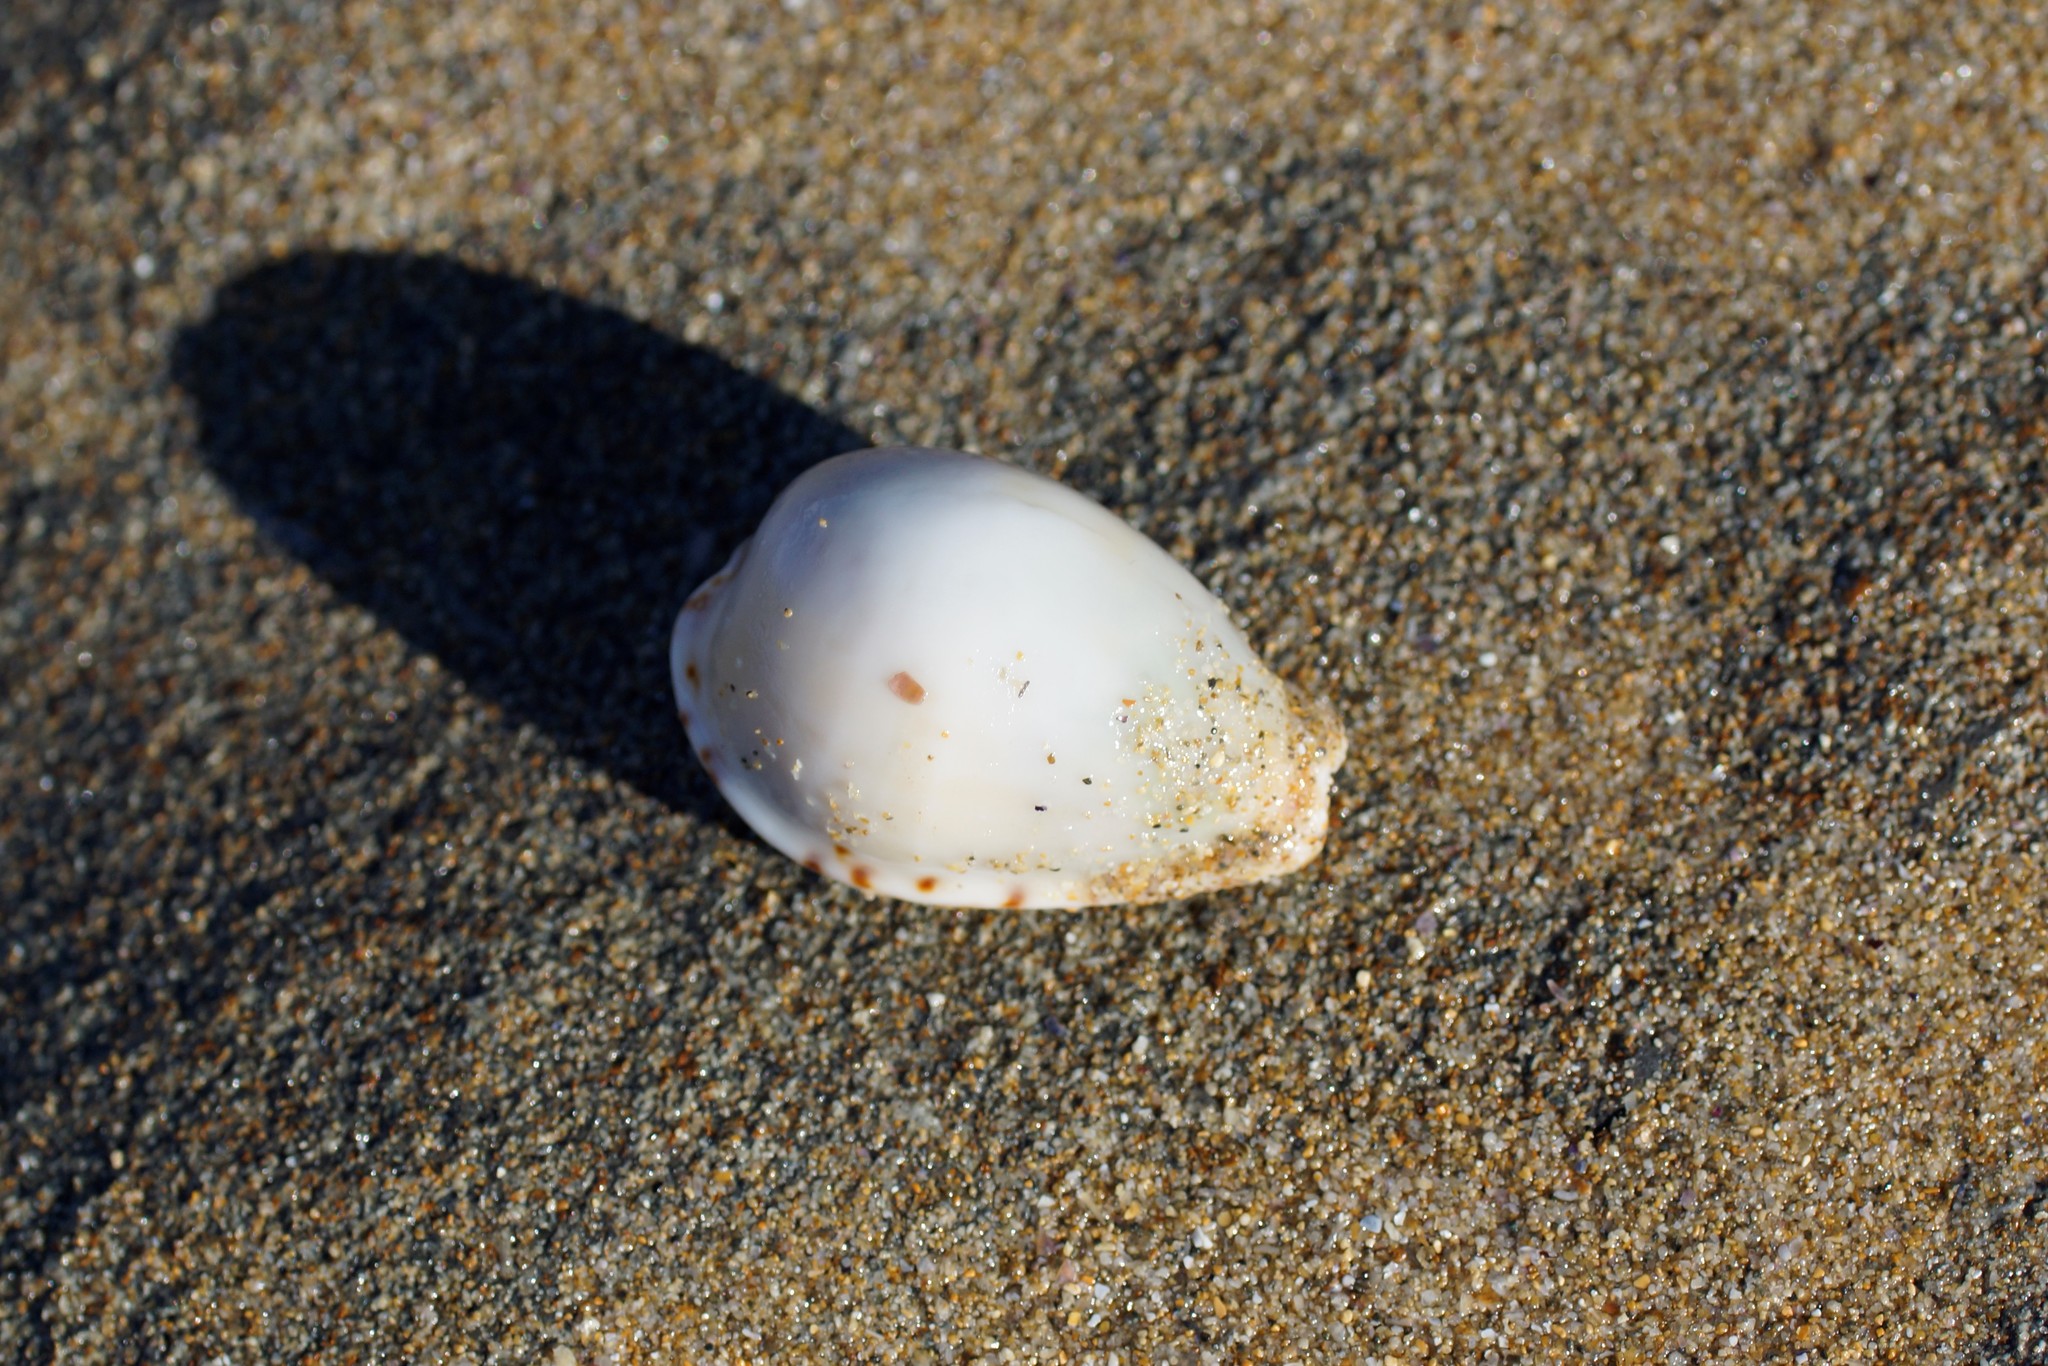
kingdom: Animalia
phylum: Mollusca
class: Gastropoda
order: Littorinimorpha
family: Cypraeidae
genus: Notocypraea
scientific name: Notocypraea angustata
